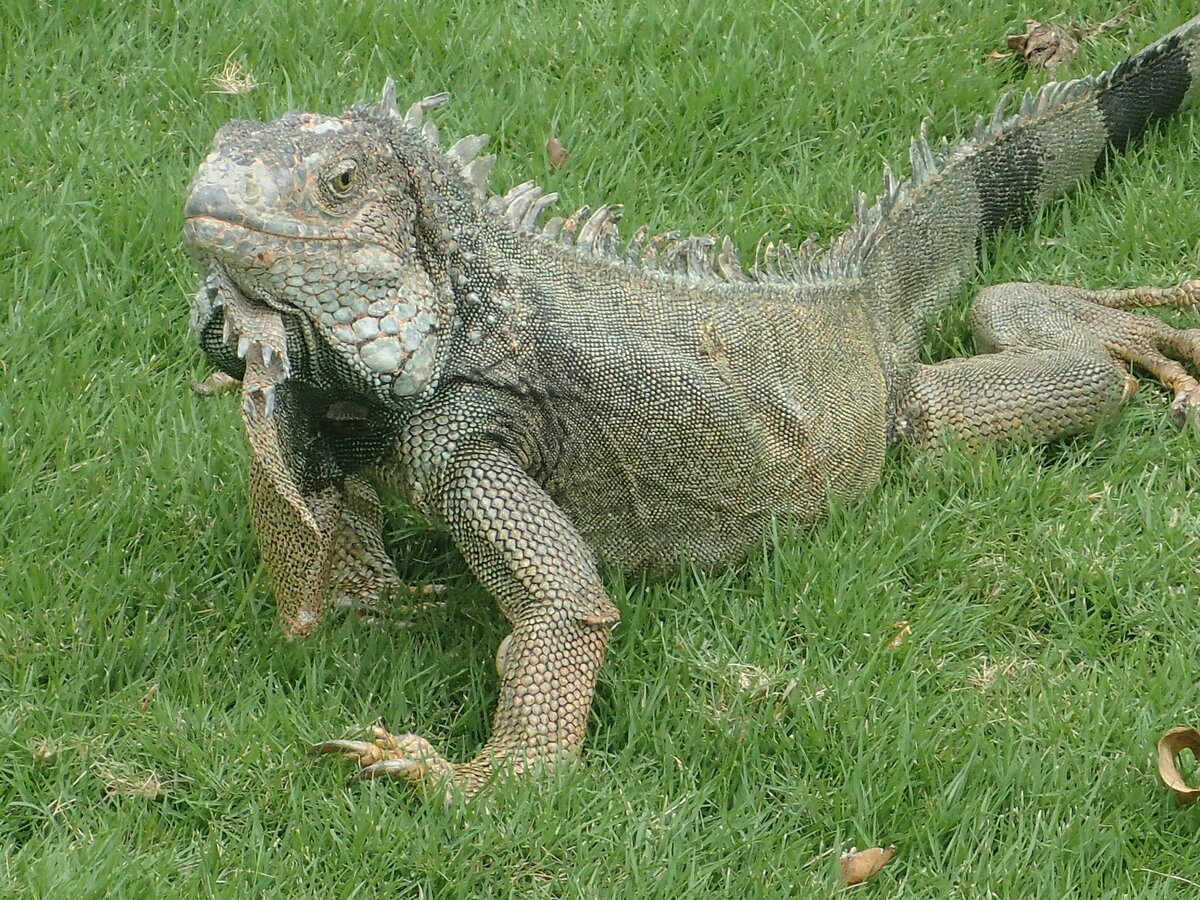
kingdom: Animalia
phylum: Chordata
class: Squamata
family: Iguanidae
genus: Iguana
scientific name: Iguana iguana
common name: Green iguana
